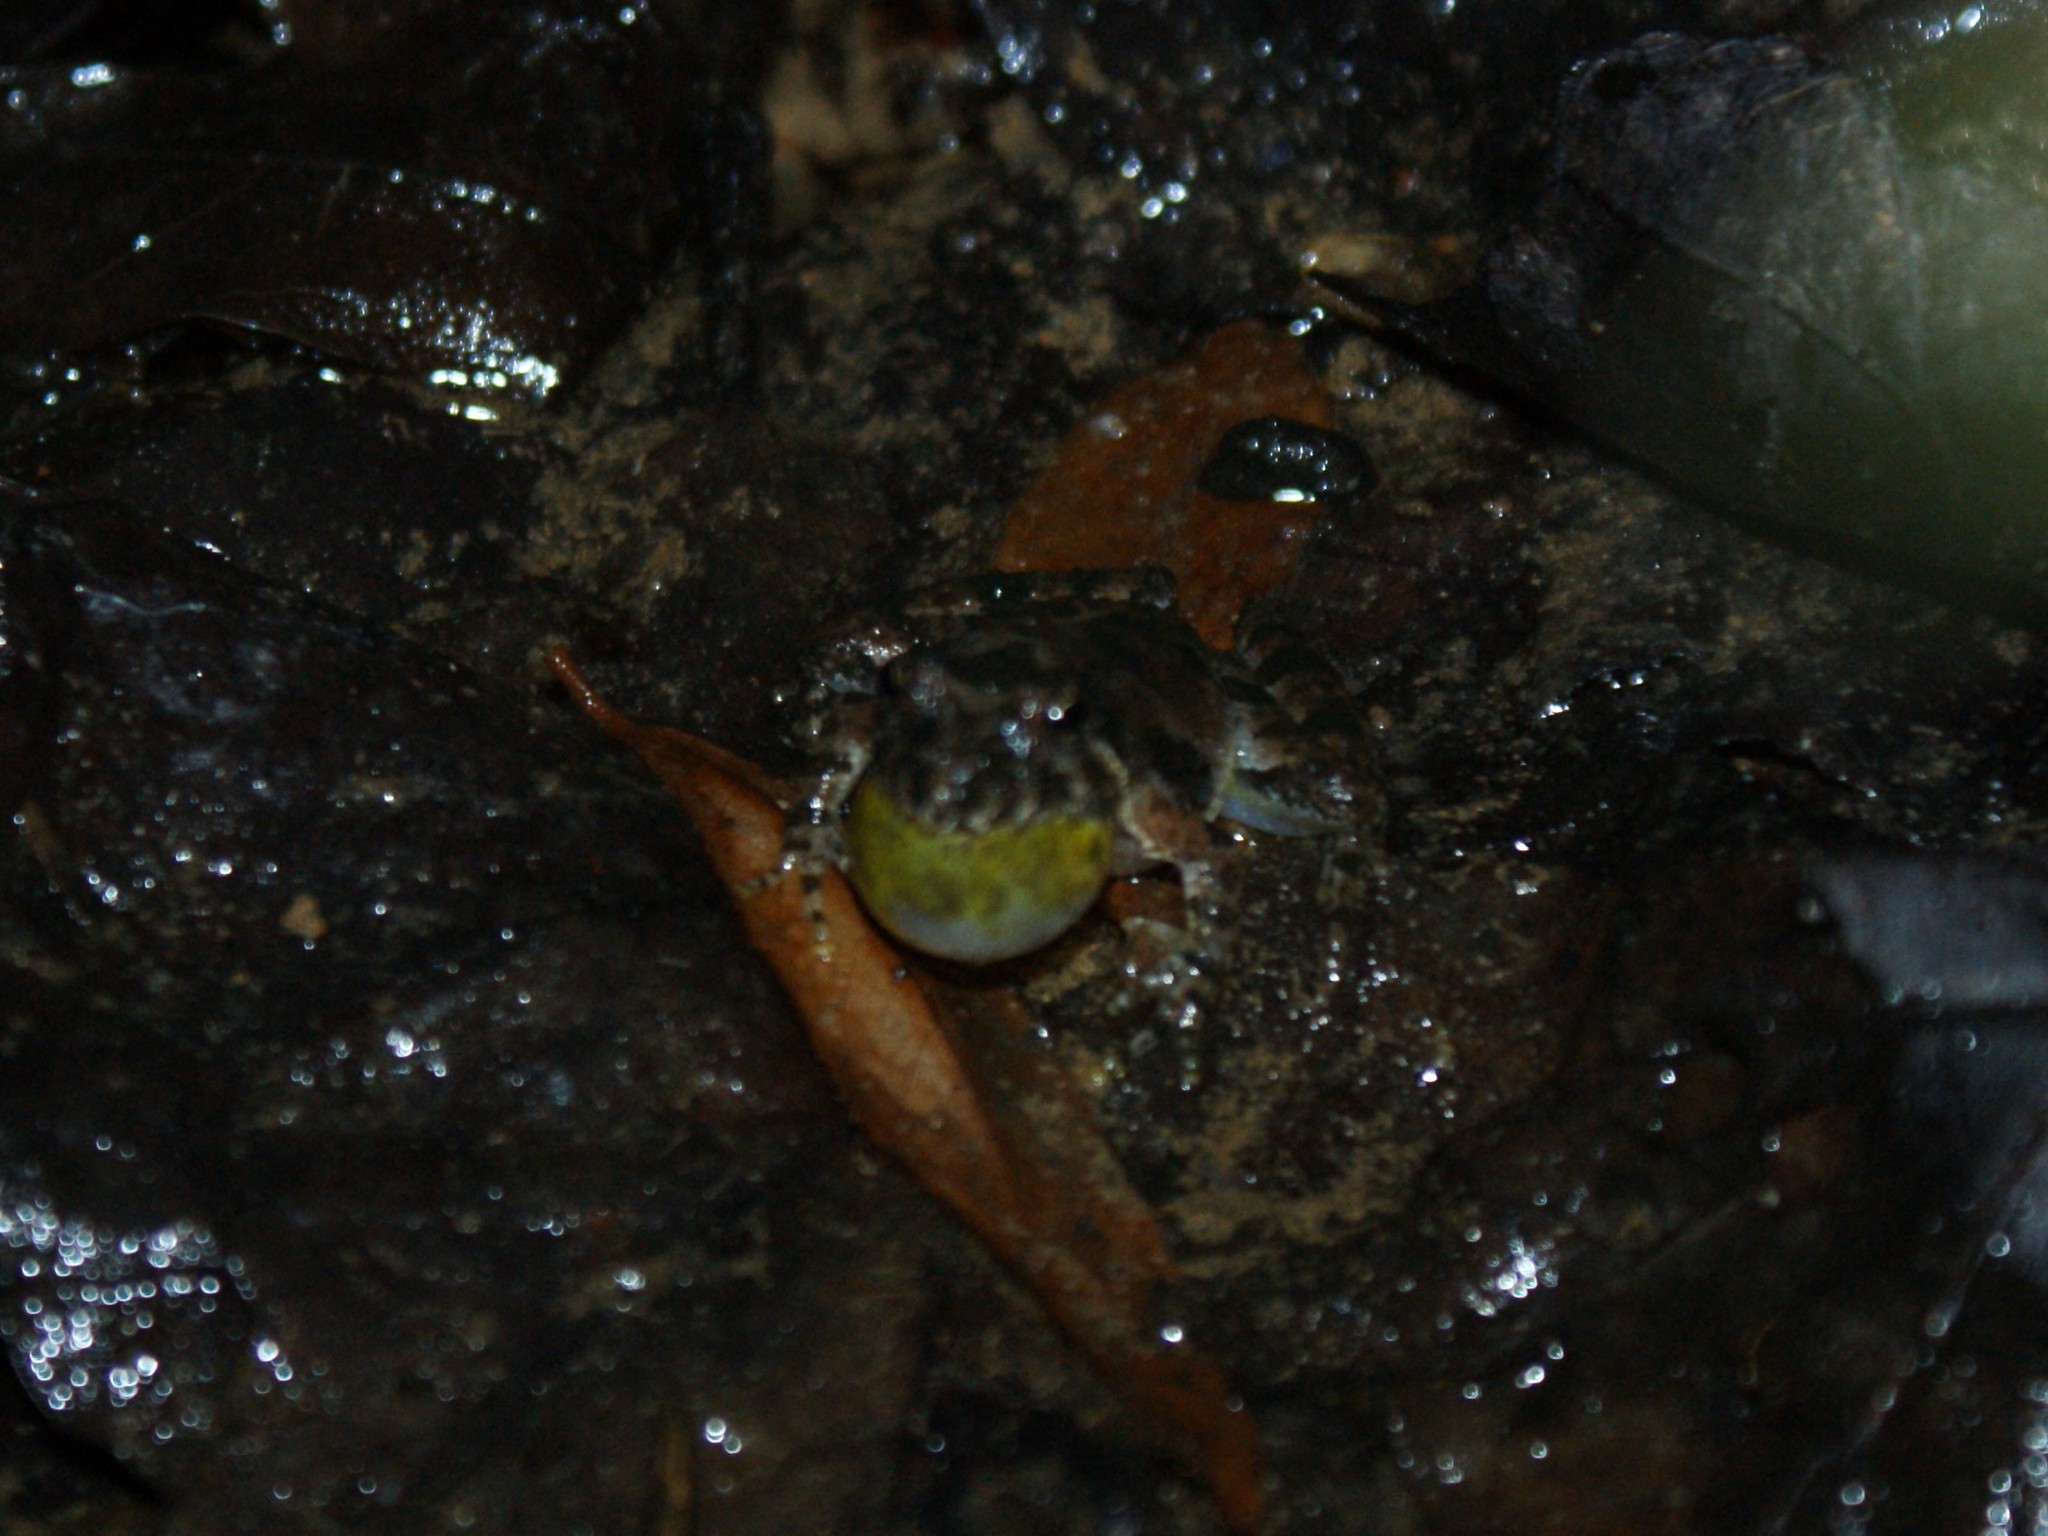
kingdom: Animalia
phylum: Chordata
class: Amphibia
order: Anura
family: Hylidae
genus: Acris
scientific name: Acris crepitans
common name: Northern cricket frog
